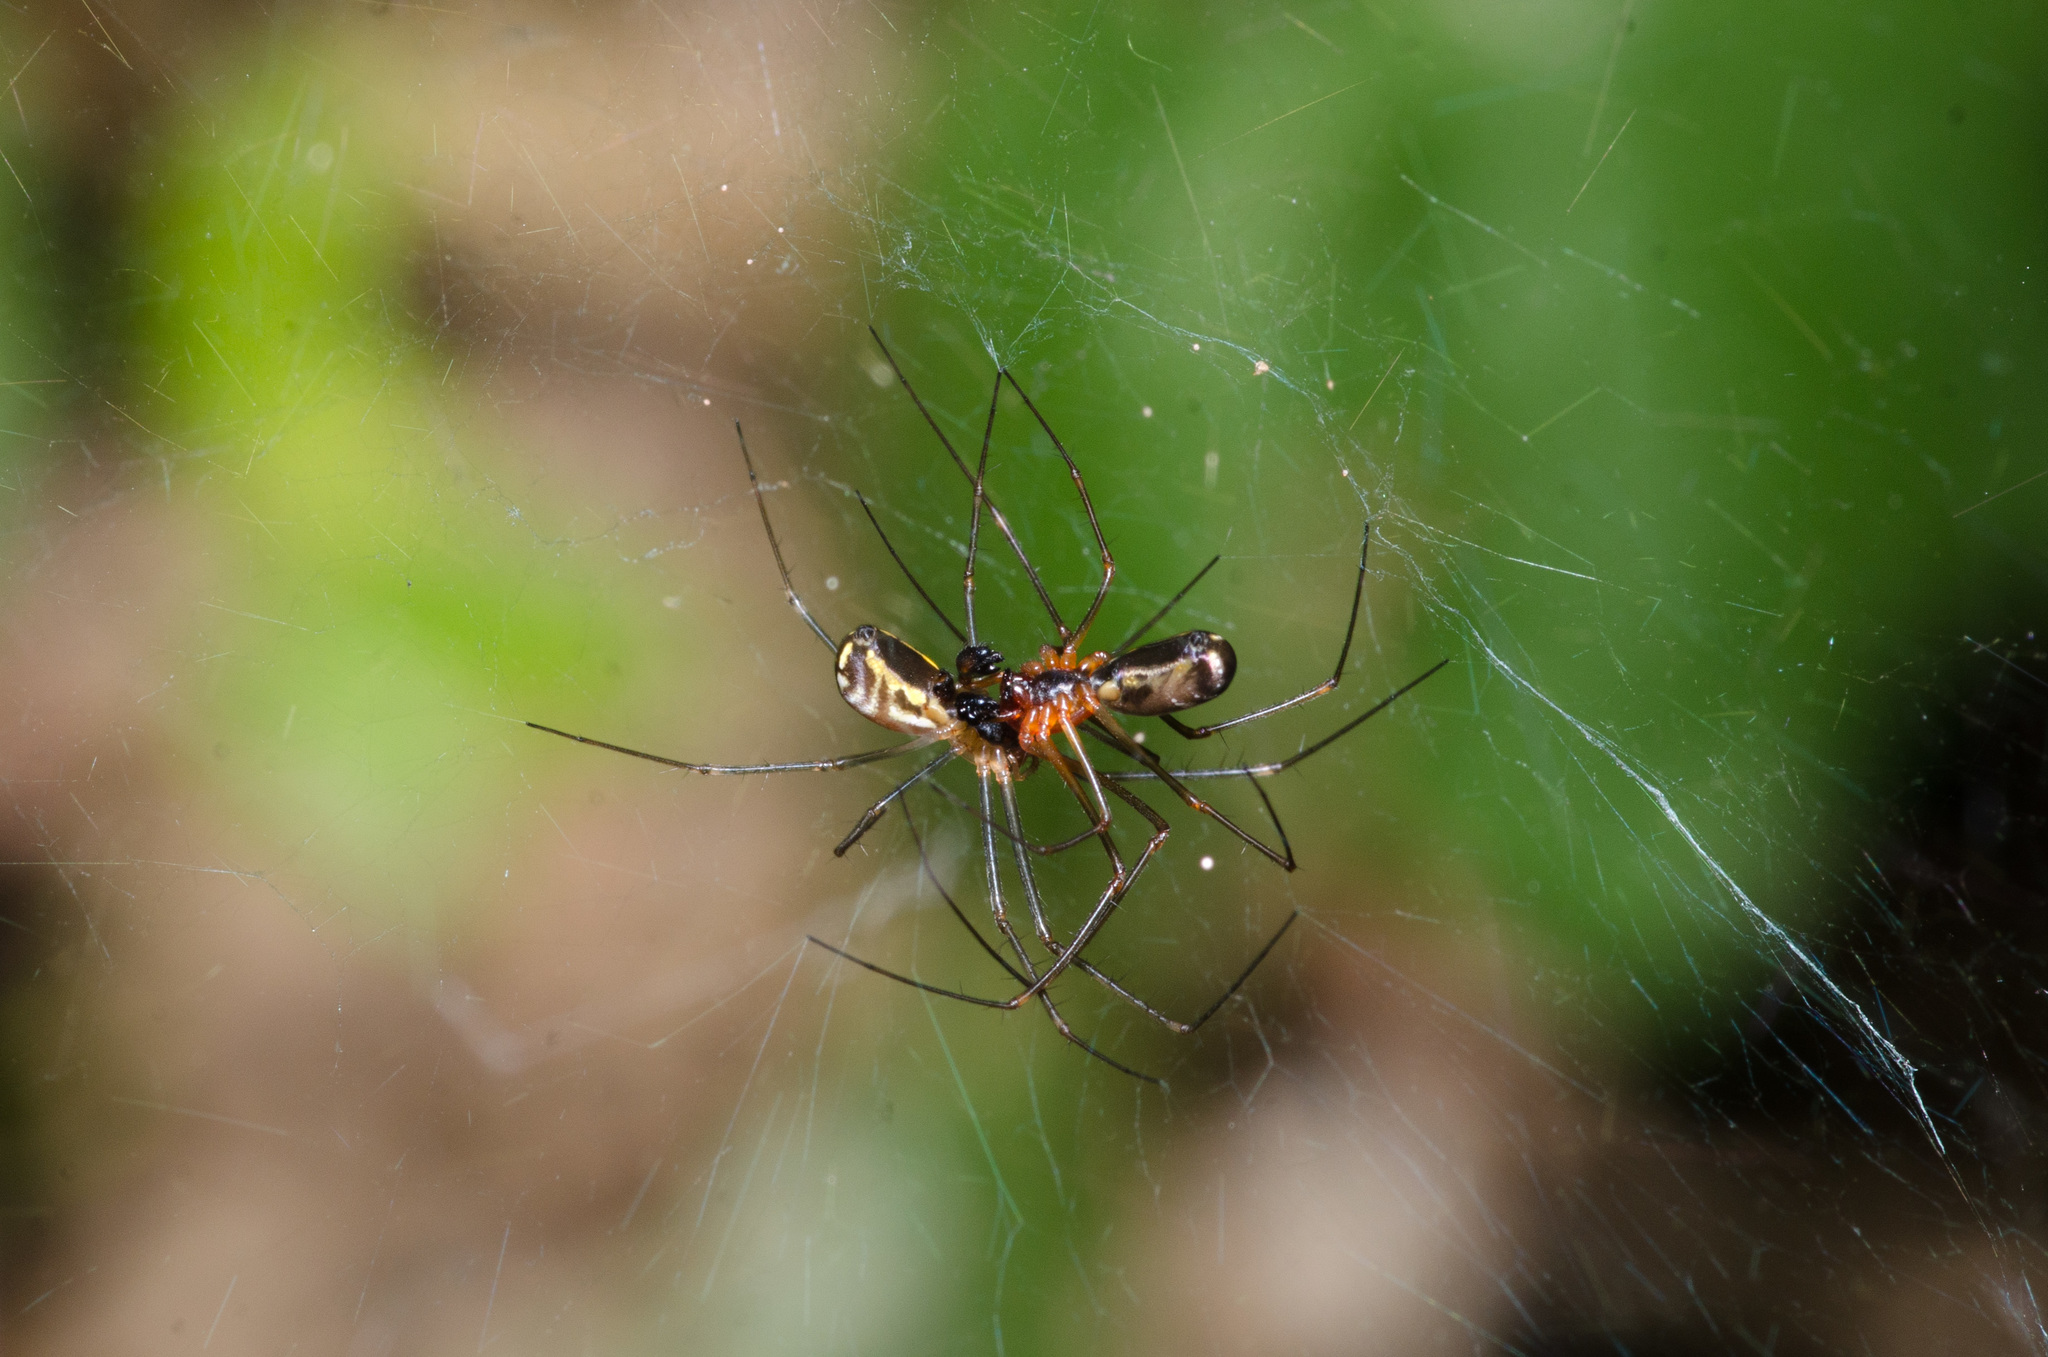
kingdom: Animalia
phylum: Arthropoda
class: Arachnida
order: Araneae
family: Linyphiidae
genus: Neriene
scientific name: Neriene radiata
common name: Filmy dome spider
